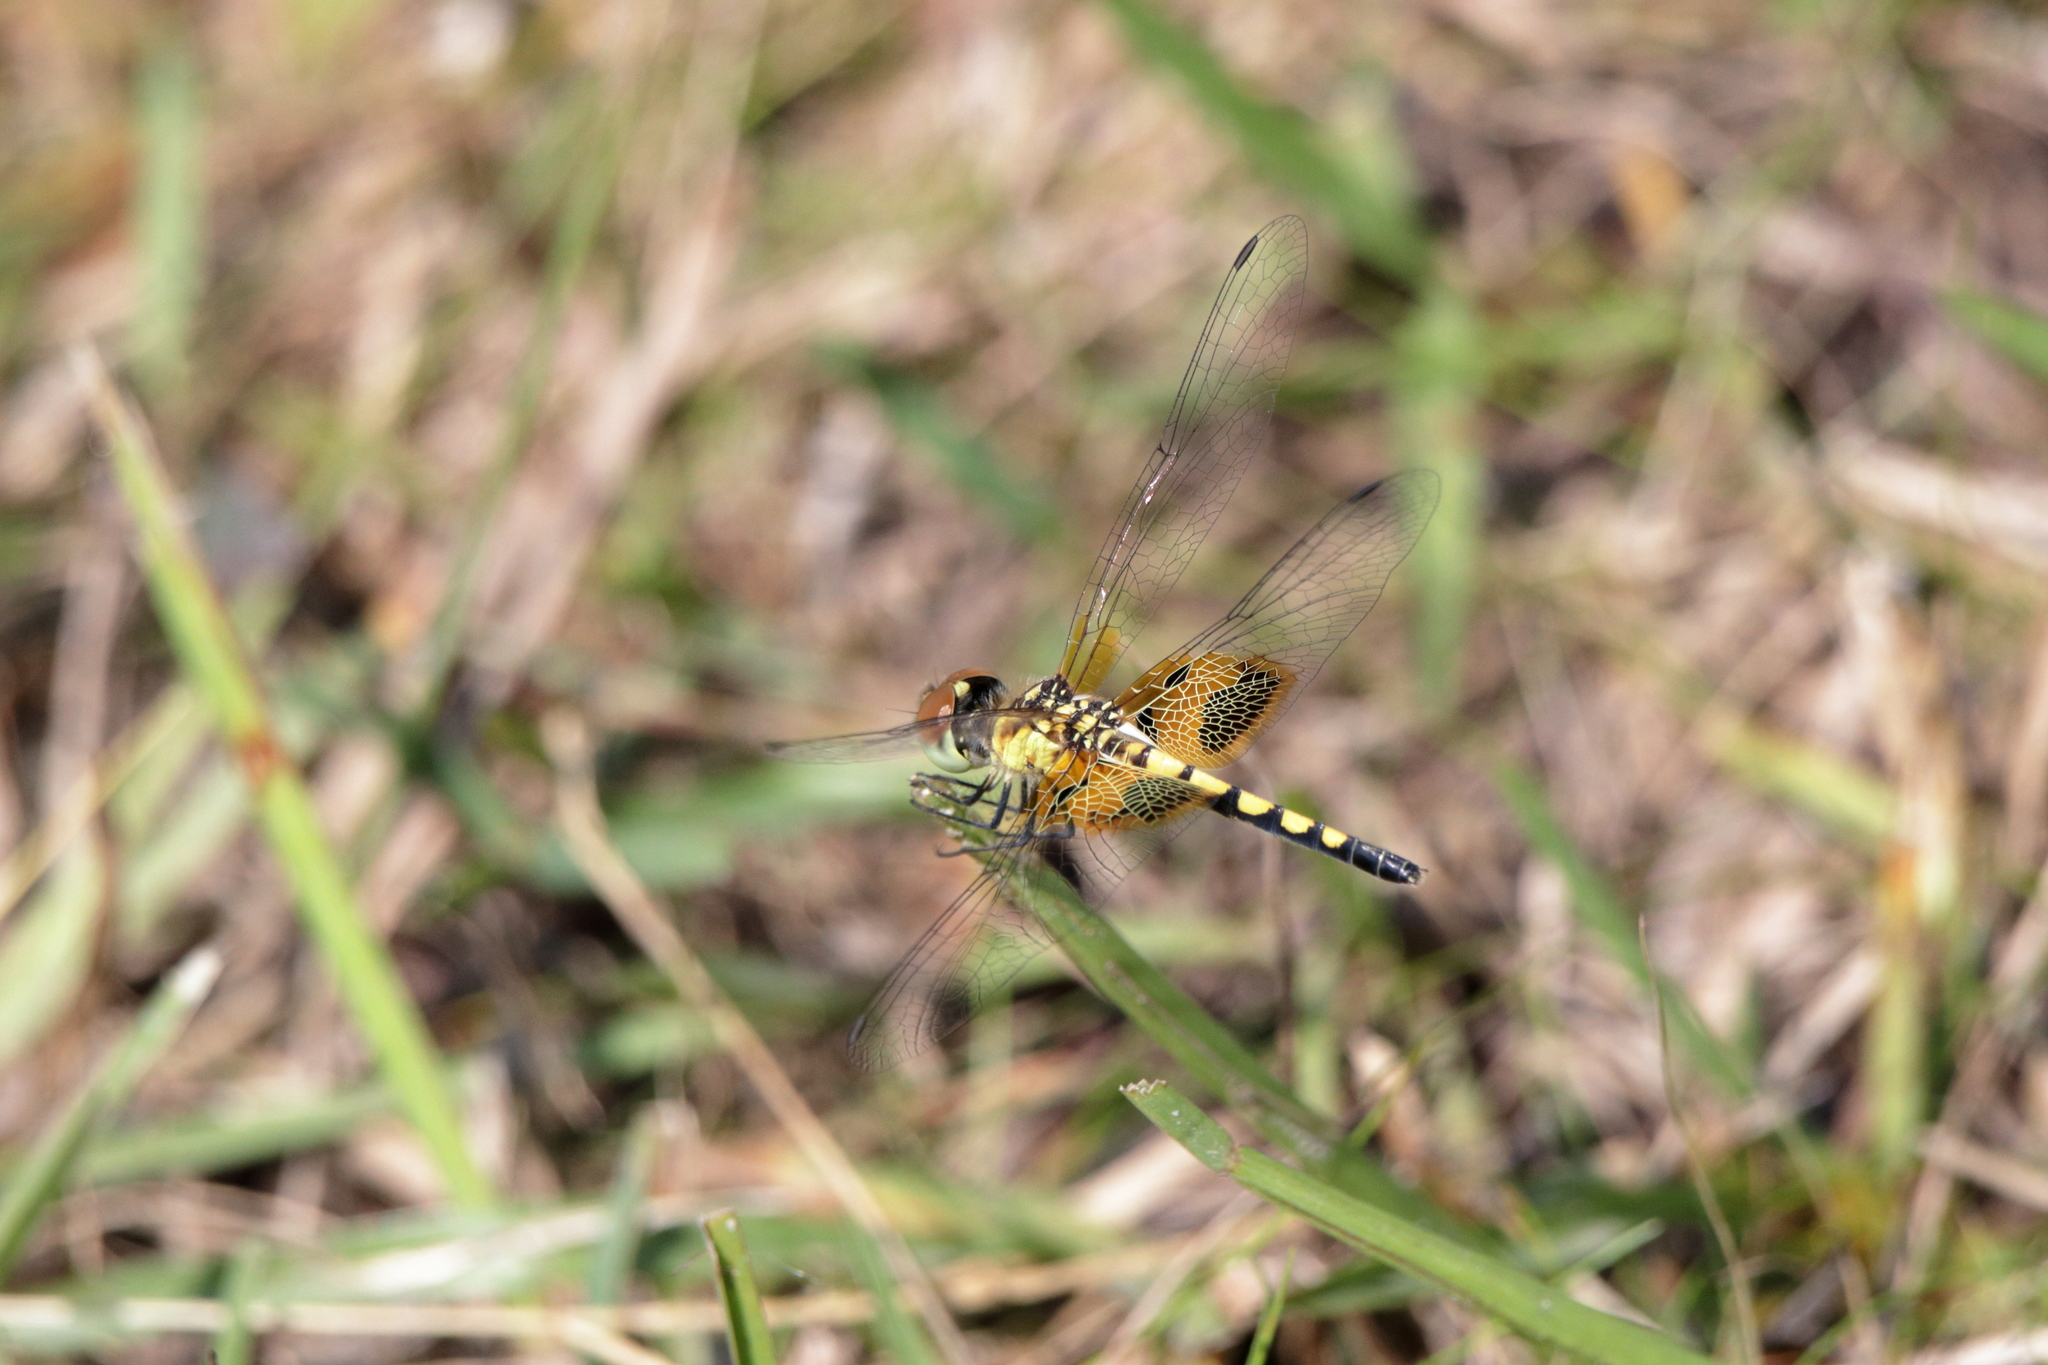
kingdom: Animalia
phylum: Arthropoda
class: Insecta
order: Odonata
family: Libellulidae
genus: Celithemis
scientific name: Celithemis amanda
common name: Amanda's pennant
